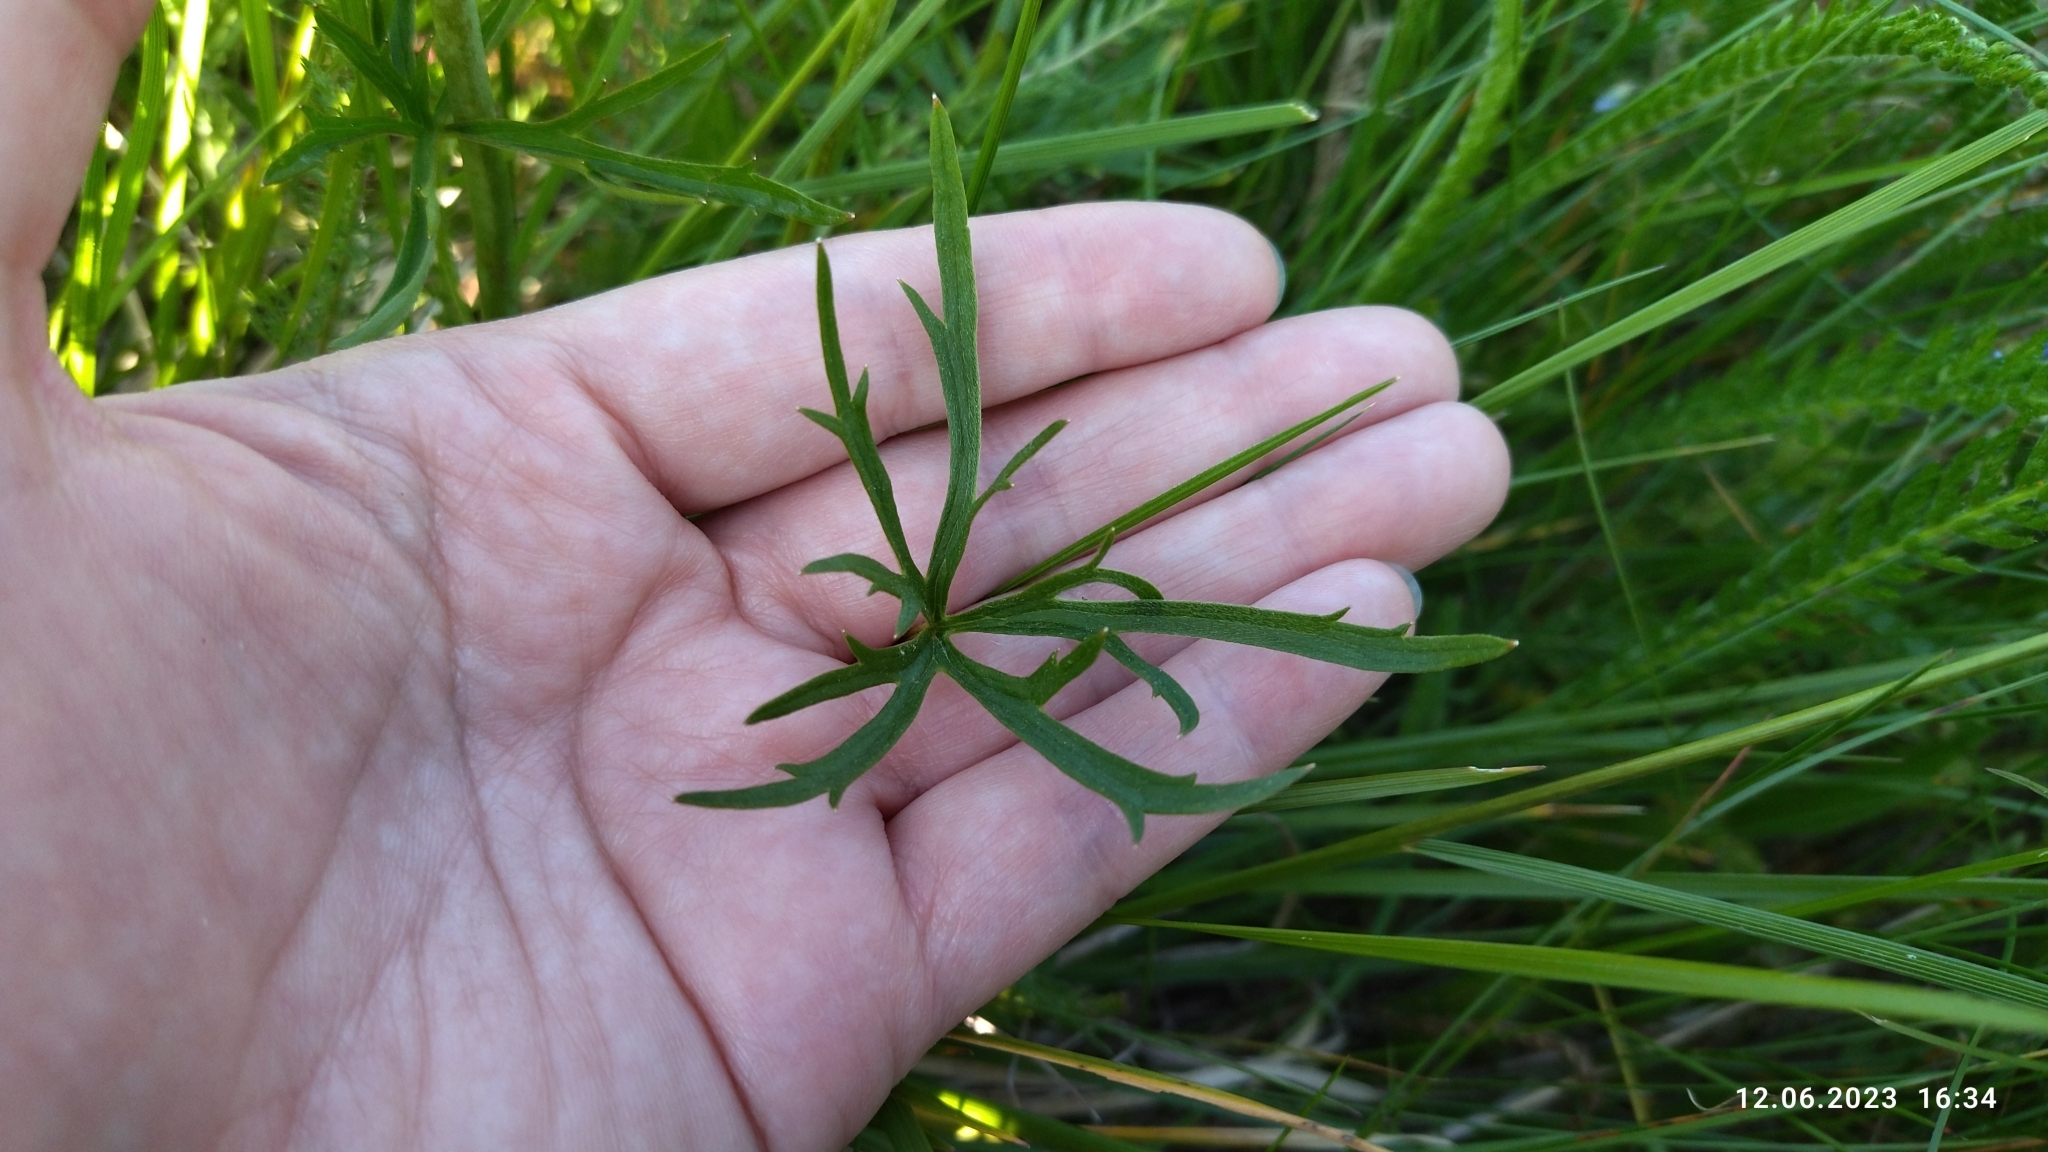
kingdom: Plantae
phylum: Tracheophyta
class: Magnoliopsida
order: Ranunculales
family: Ranunculaceae
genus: Ranunculus
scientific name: Ranunculus acris
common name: Meadow buttercup
